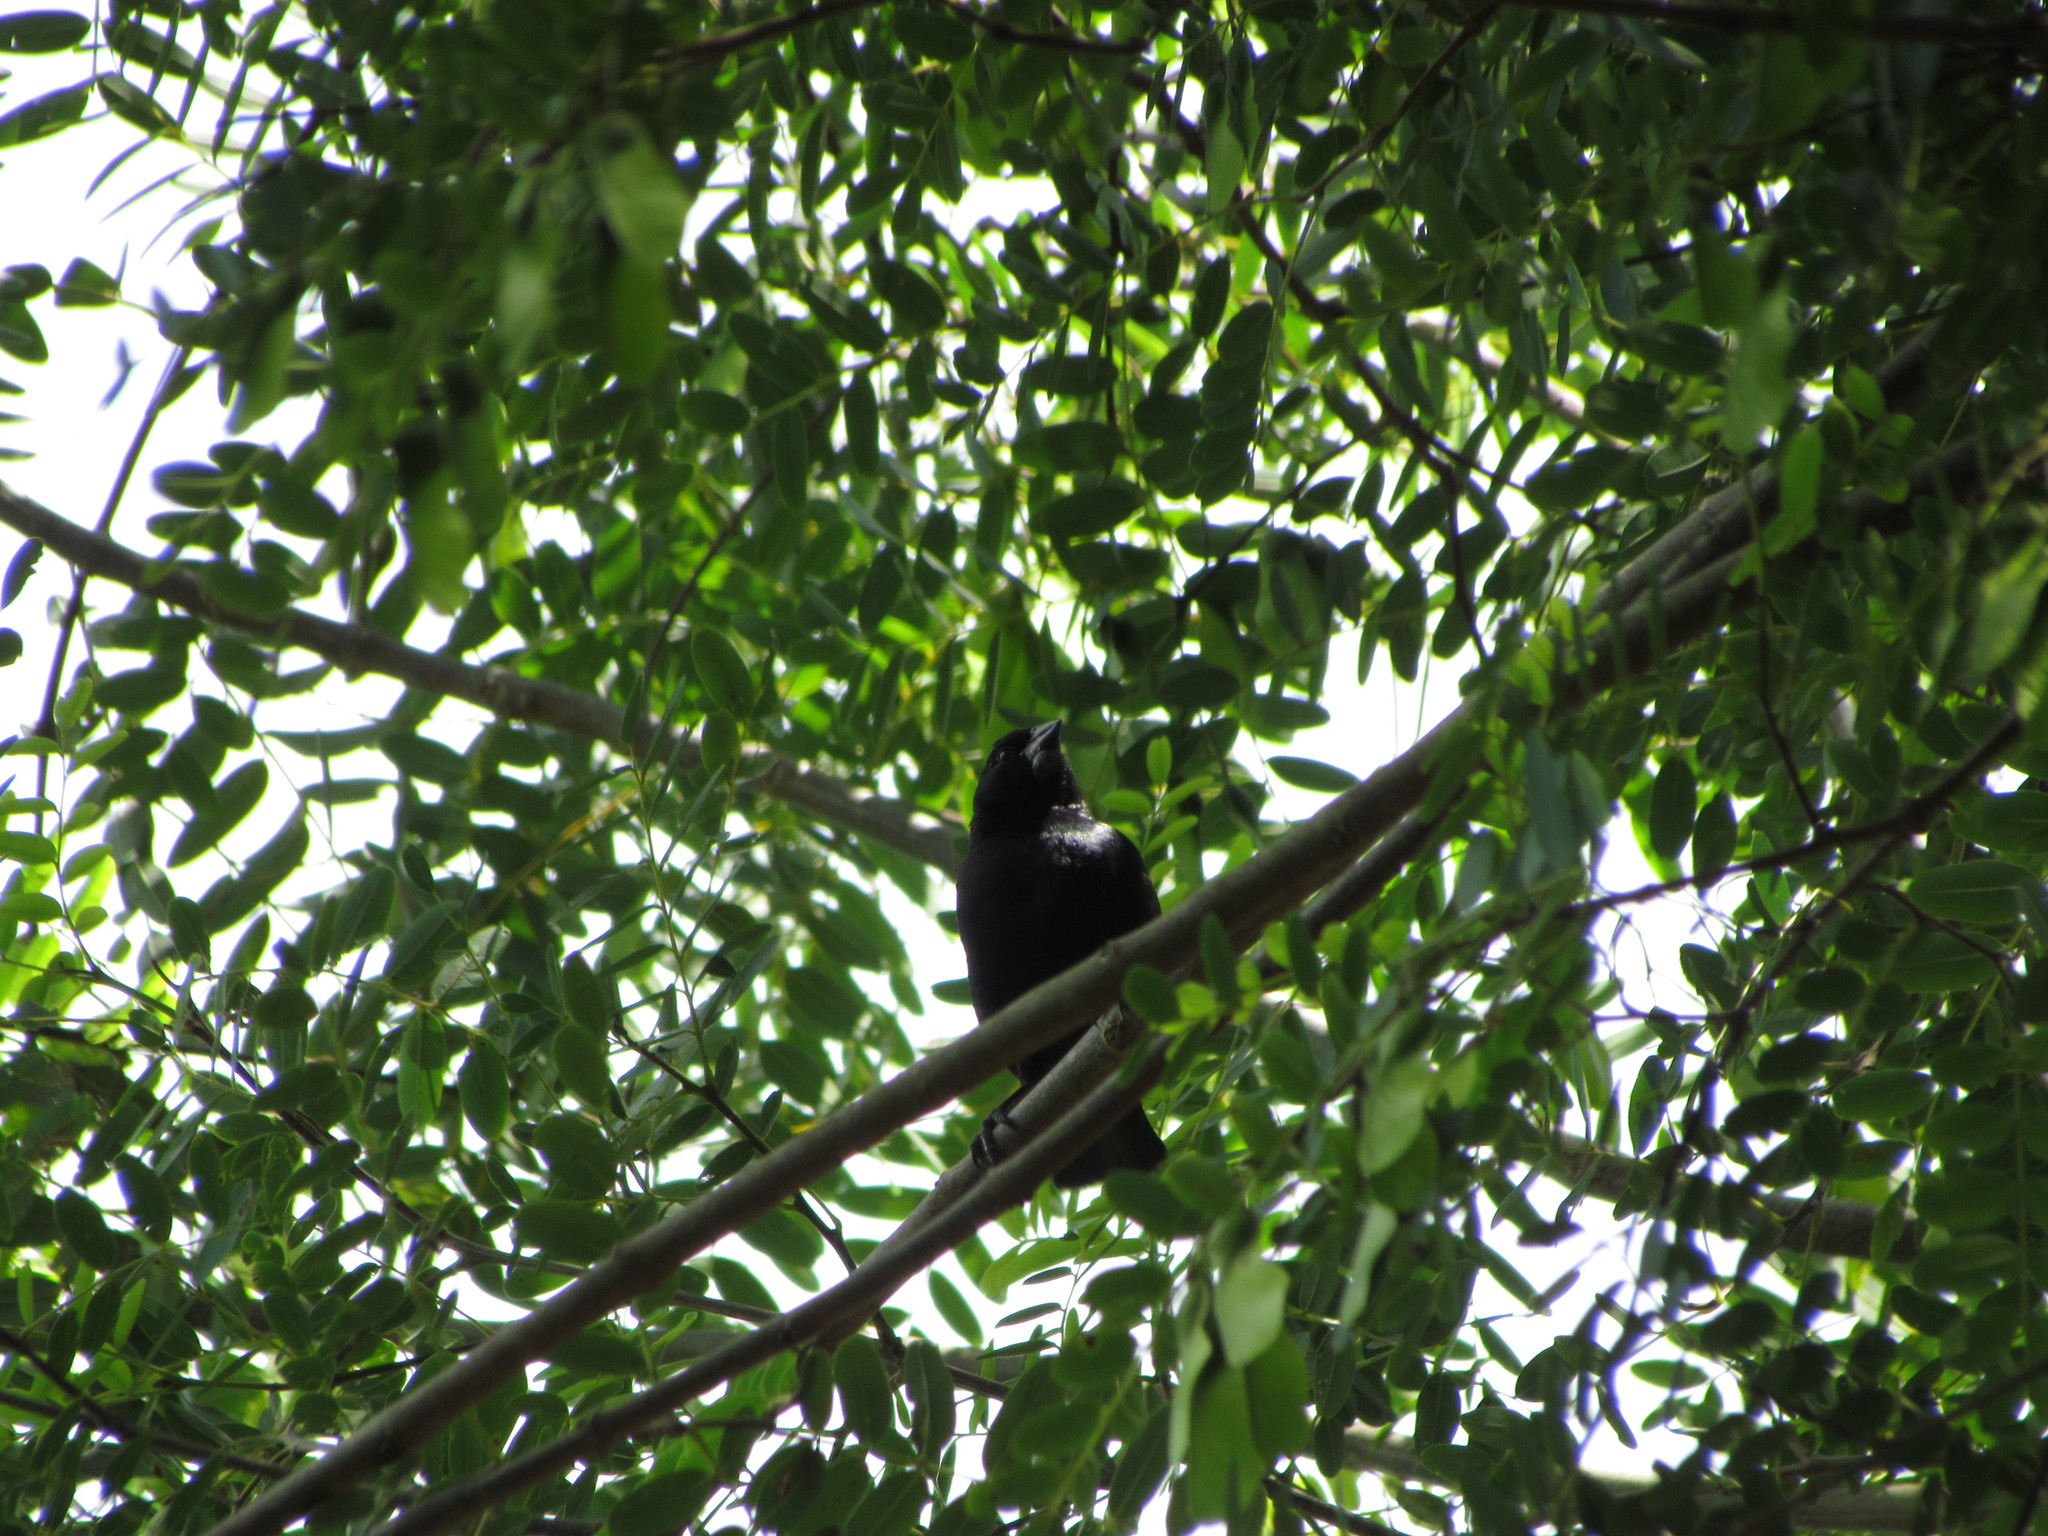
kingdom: Animalia
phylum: Chordata
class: Aves
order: Passeriformes
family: Icteridae
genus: Molothrus
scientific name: Molothrus rufoaxillaris
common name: Screaming cowbird
